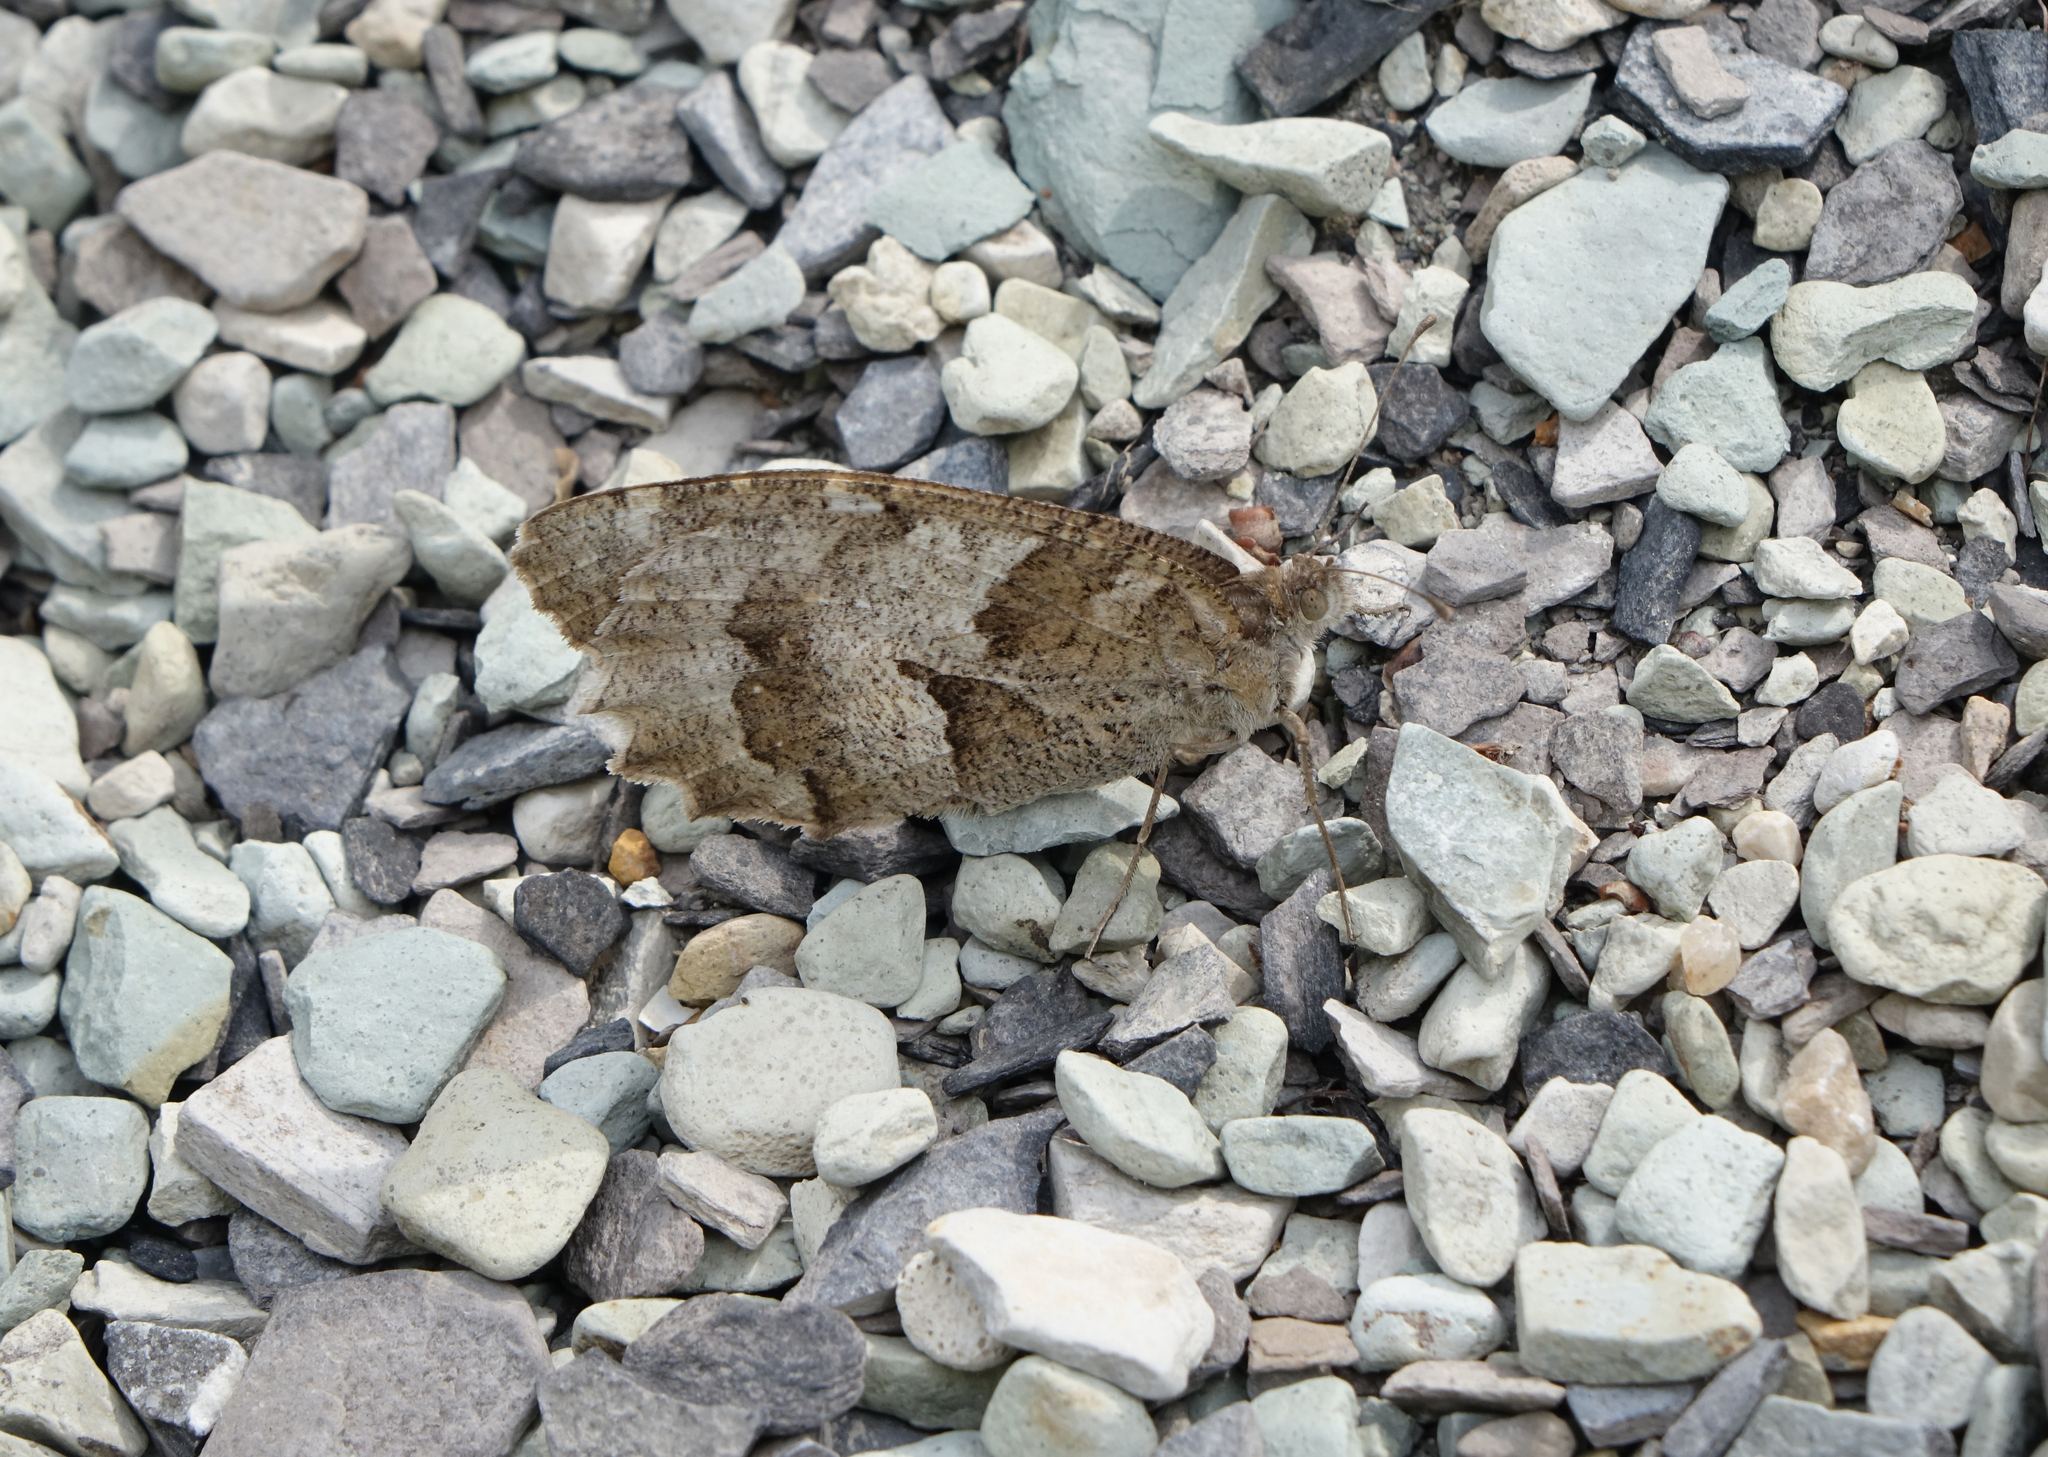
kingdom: Animalia
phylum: Arthropoda
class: Insecta
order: Lepidoptera
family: Nymphalidae
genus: Satyrus
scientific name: Satyrus briseis
